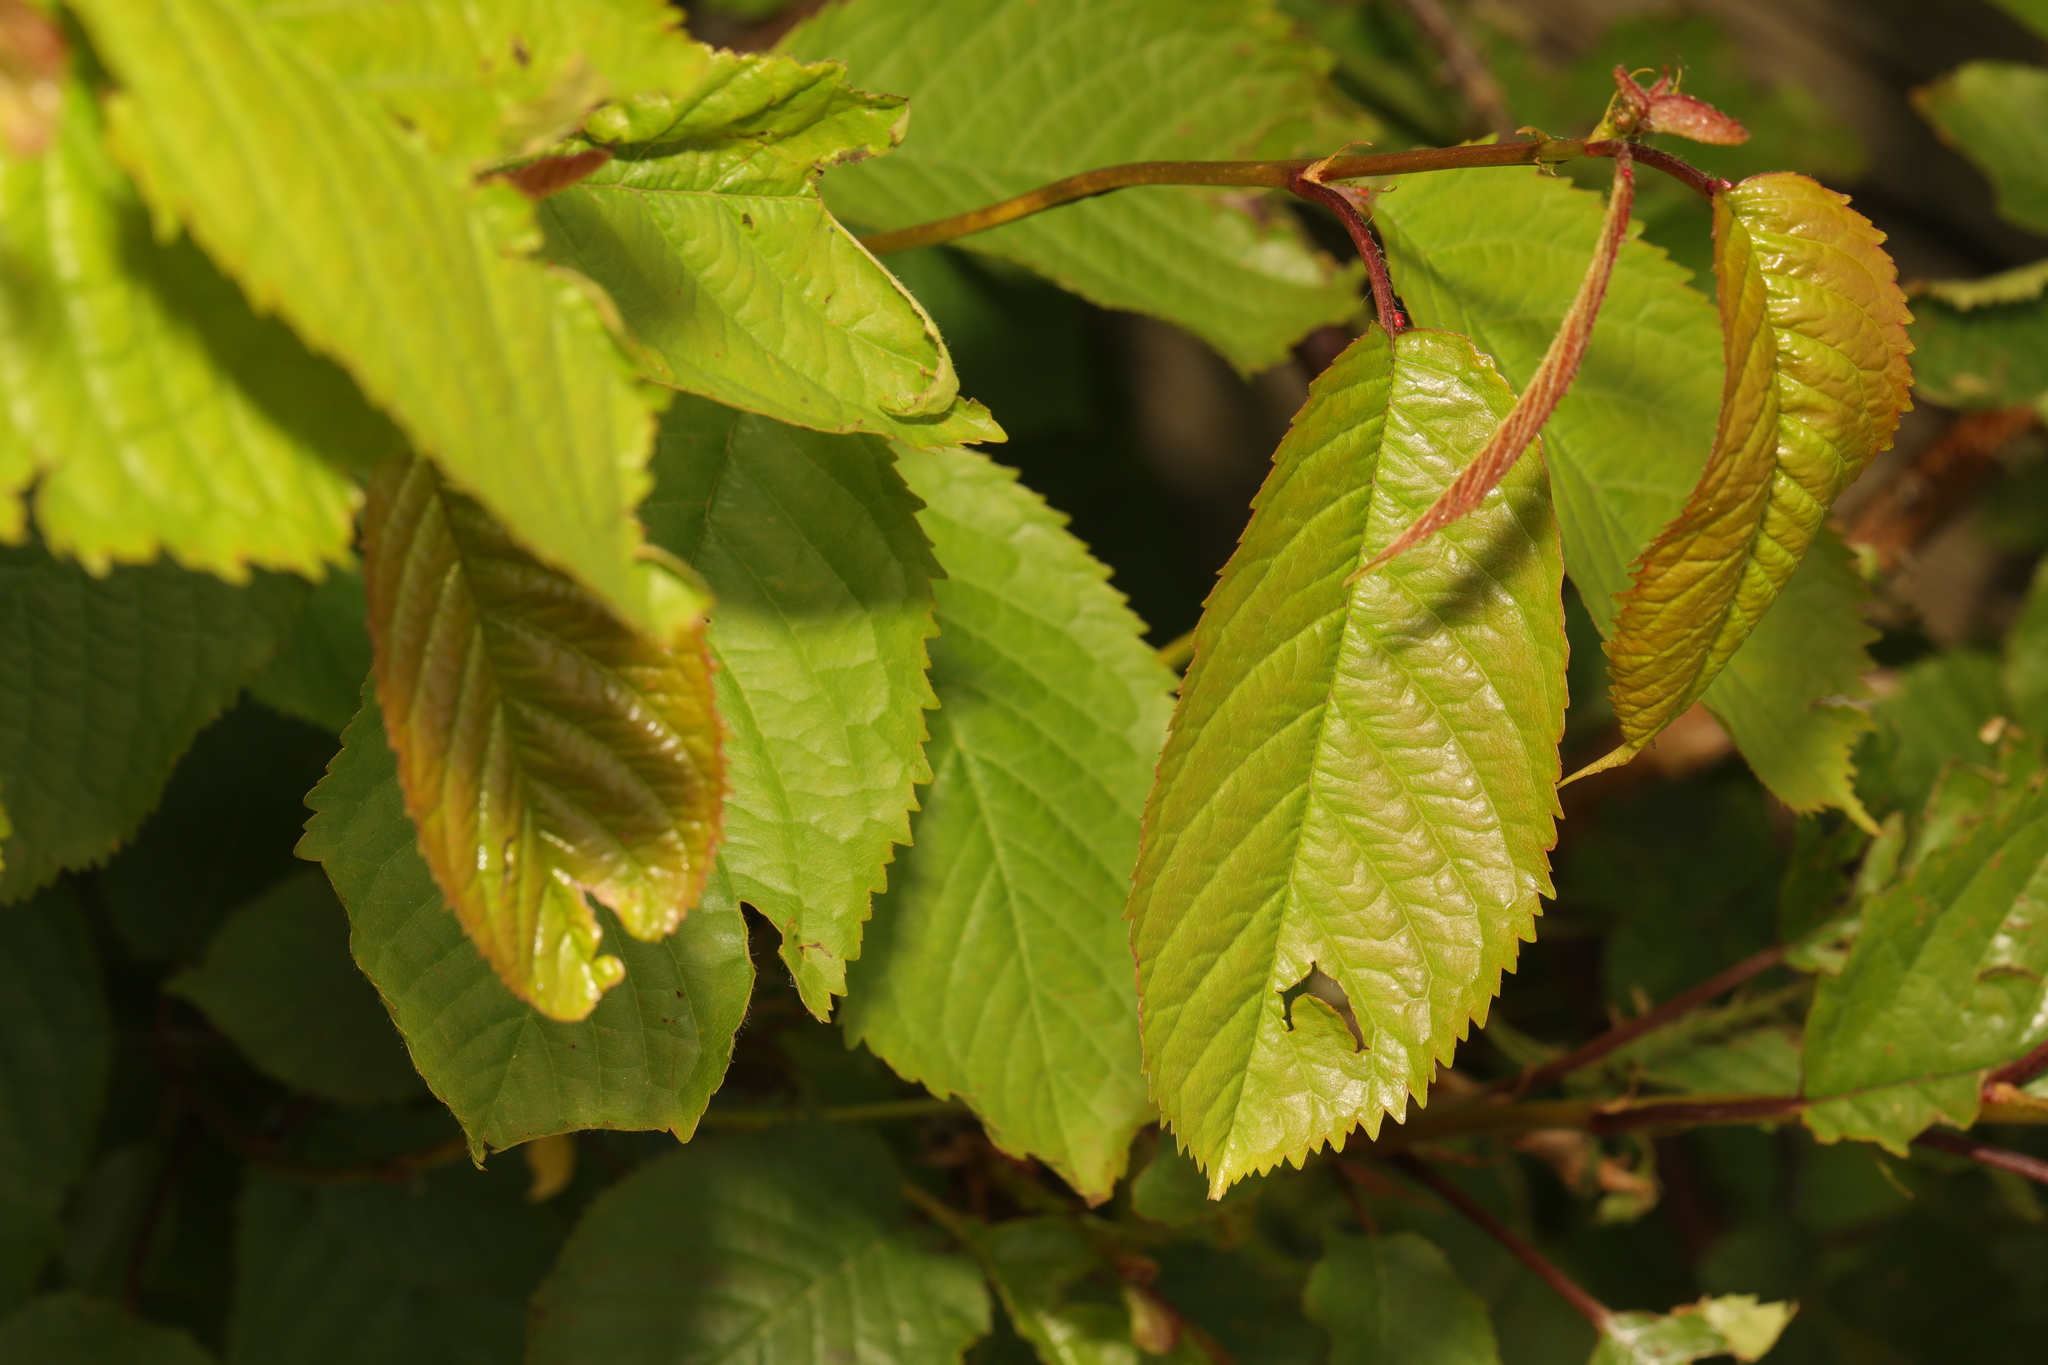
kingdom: Plantae
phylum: Tracheophyta
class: Magnoliopsida
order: Rosales
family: Rosaceae
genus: Prunus
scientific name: Prunus avium
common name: Sweet cherry
